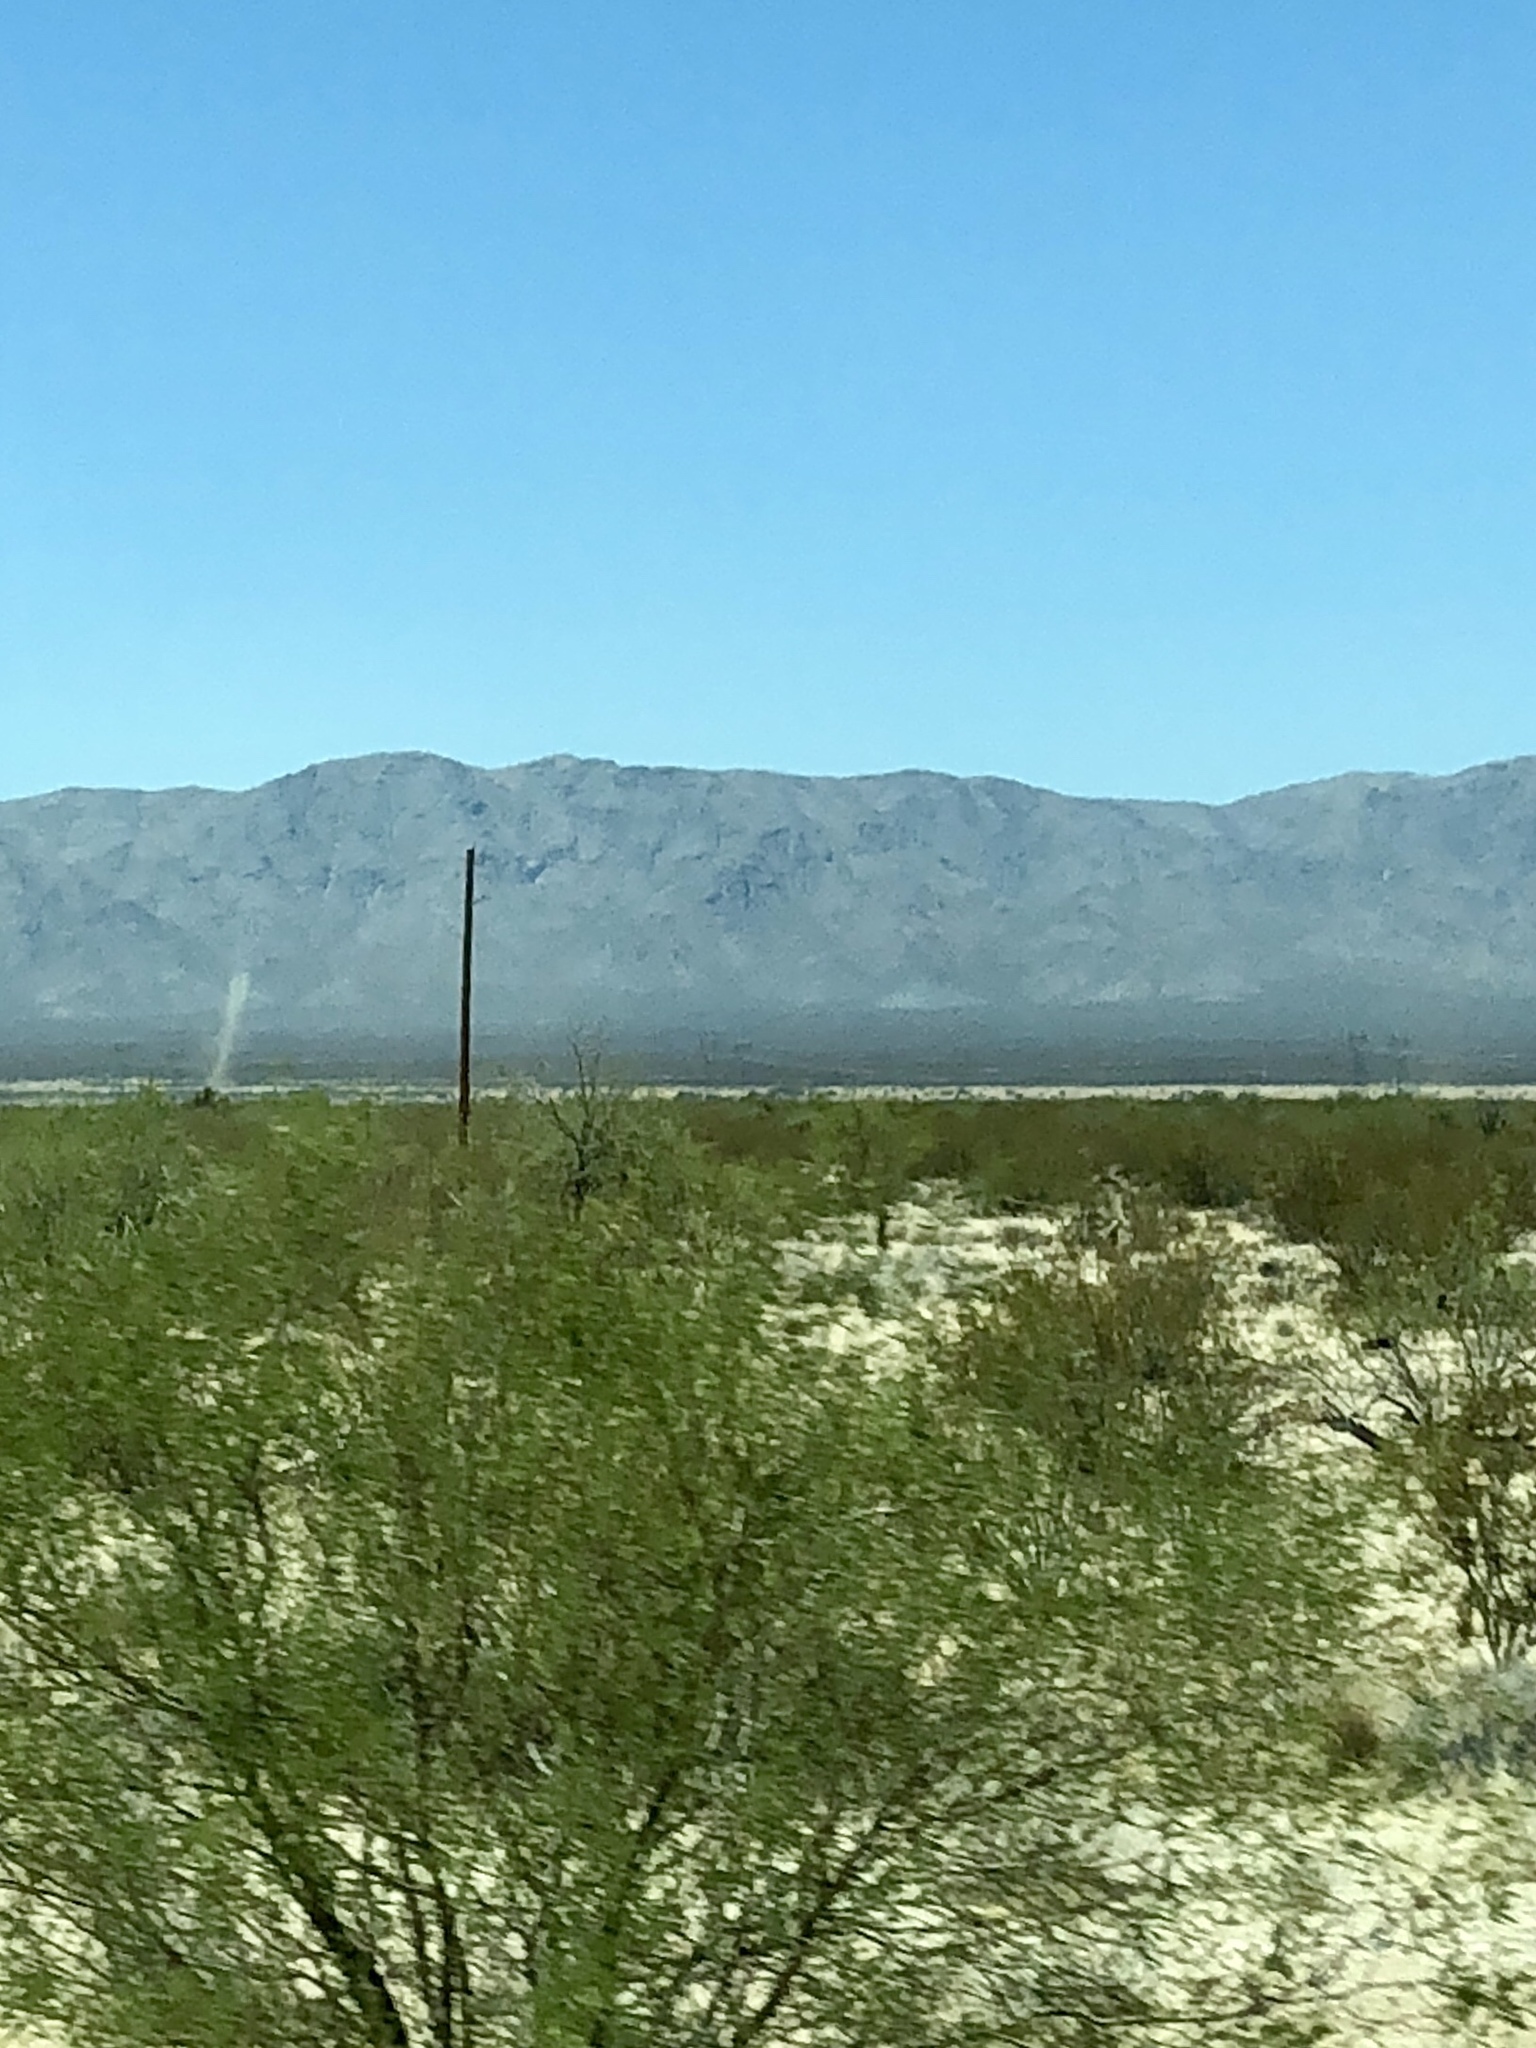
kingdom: Plantae
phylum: Tracheophyta
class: Magnoliopsida
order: Zygophyllales
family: Zygophyllaceae
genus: Larrea
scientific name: Larrea tridentata
